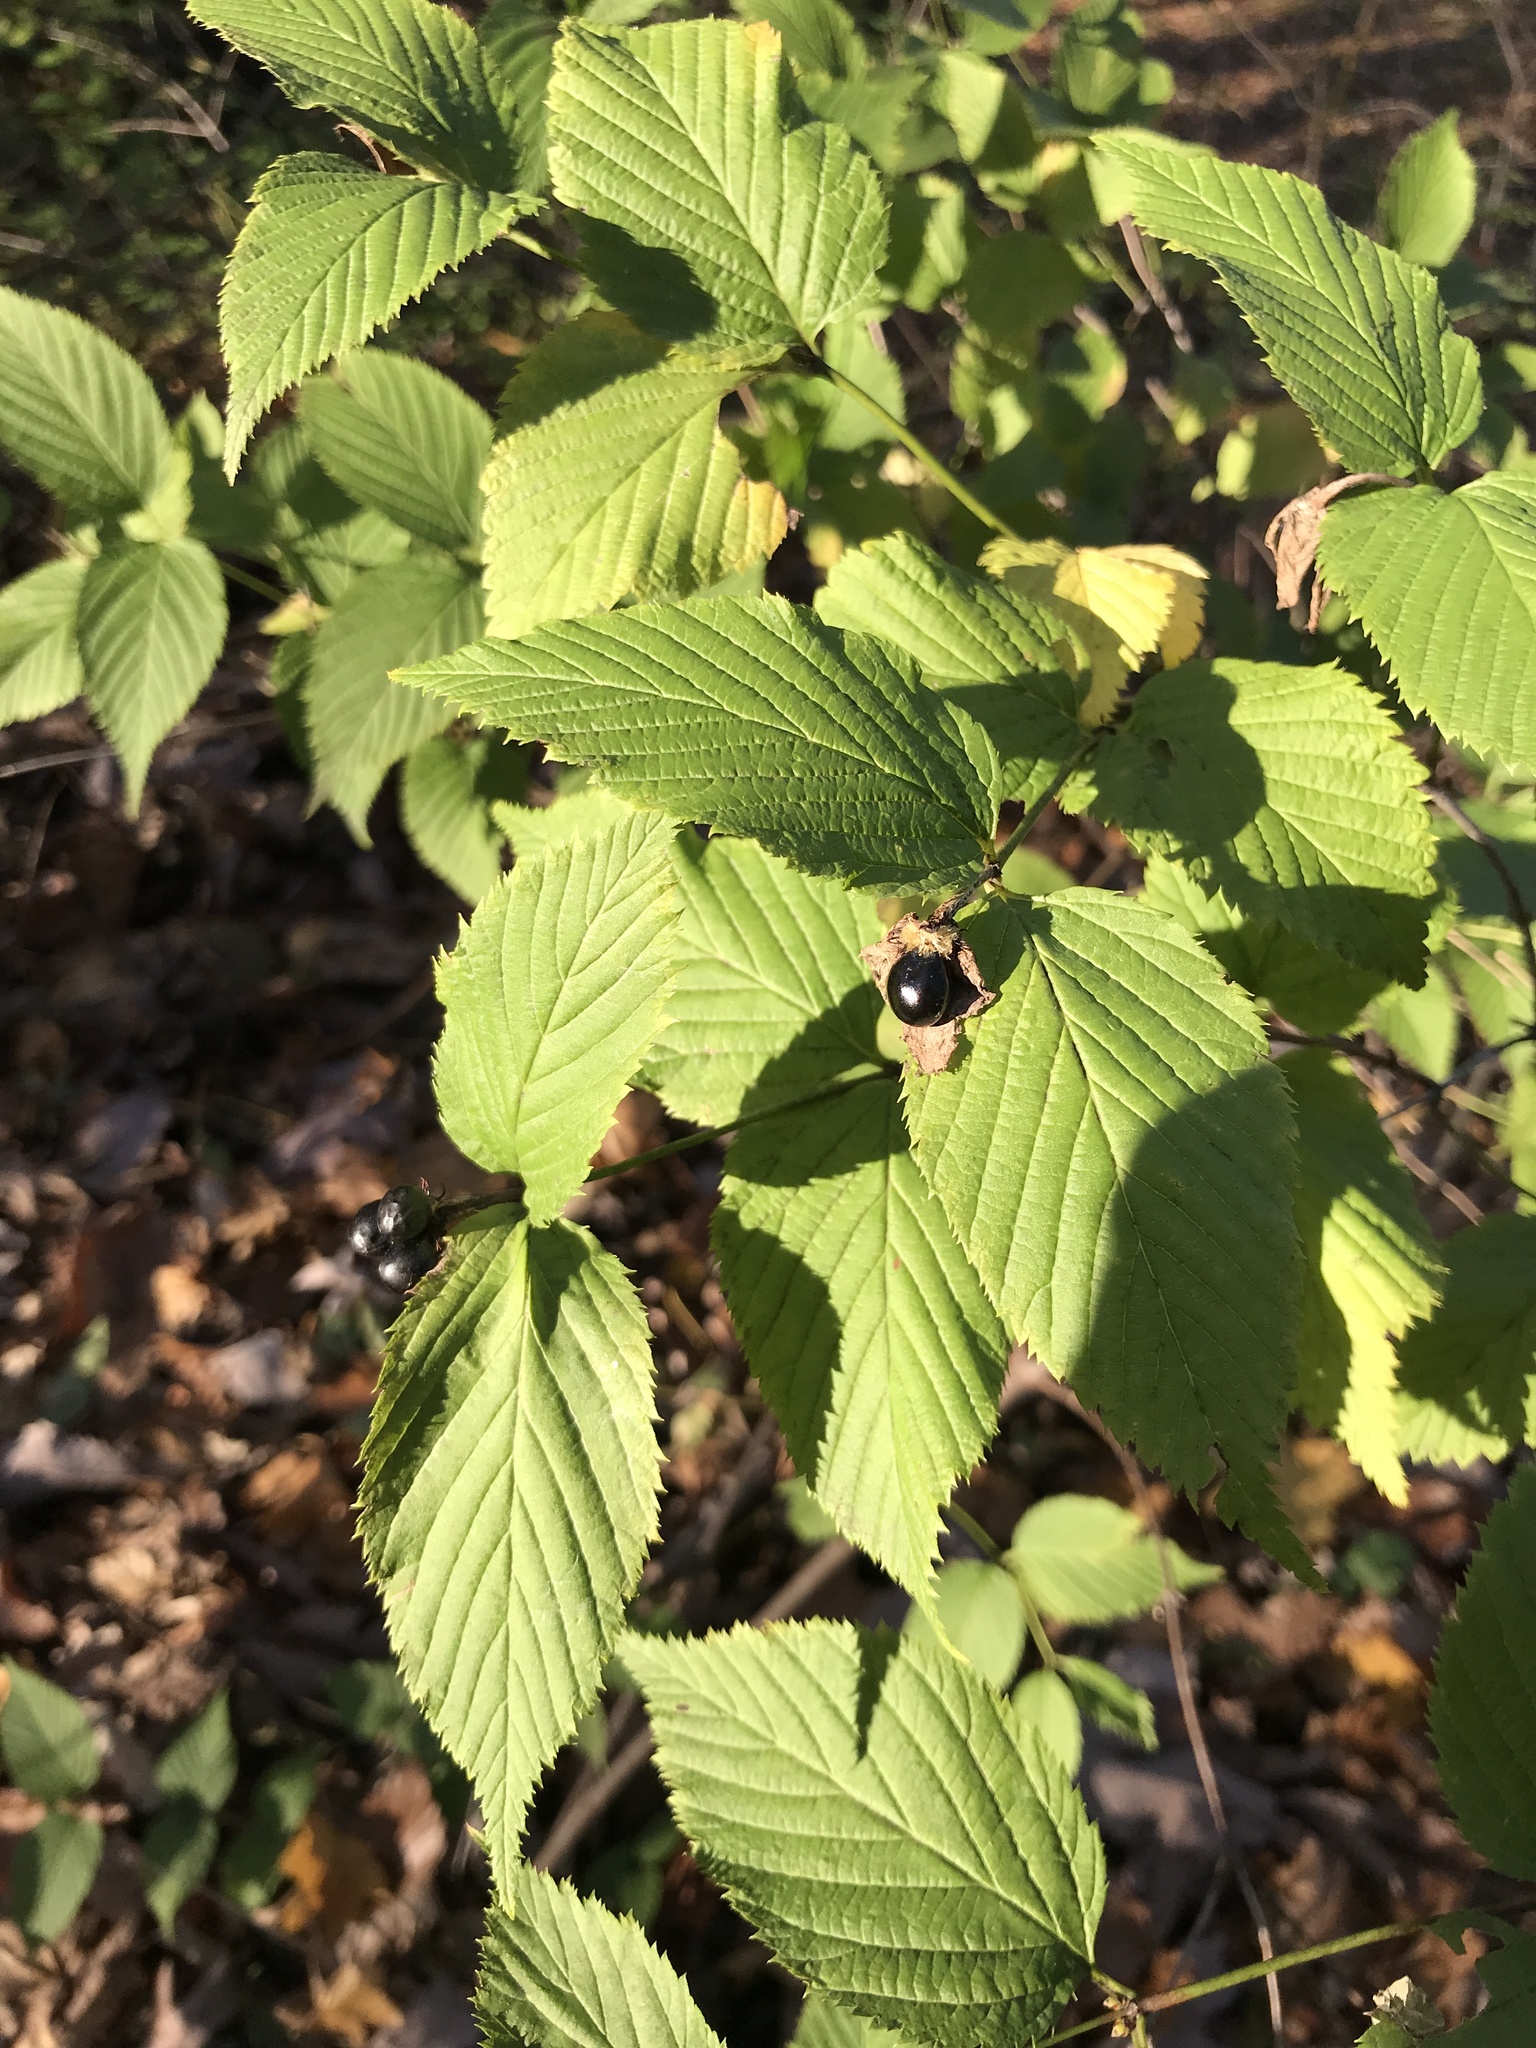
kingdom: Plantae
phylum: Tracheophyta
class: Magnoliopsida
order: Rosales
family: Rosaceae
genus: Rhodotypos
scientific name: Rhodotypos scandens
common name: Jetbead
